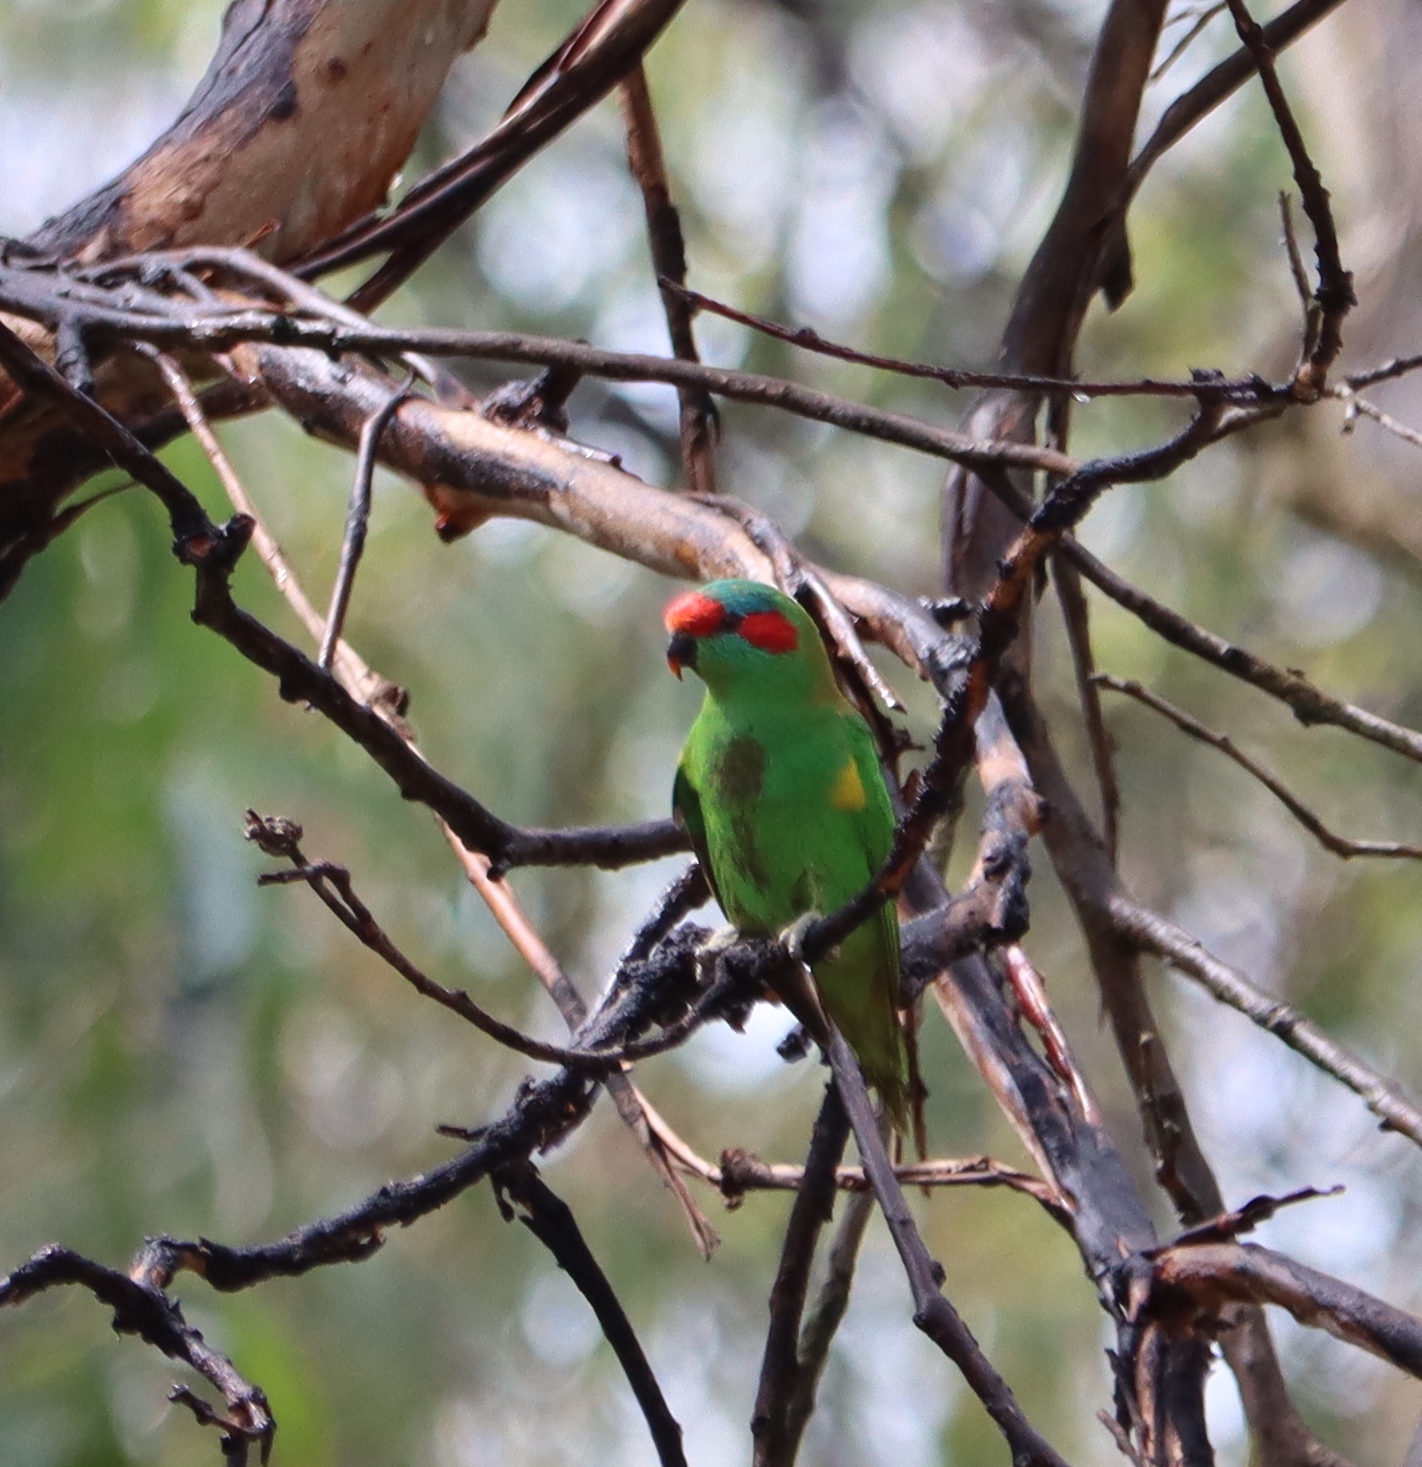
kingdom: Animalia
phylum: Chordata
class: Aves
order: Psittaciformes
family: Psittacidae
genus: Glossopsitta
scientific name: Glossopsitta concinna
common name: Musk lorikeet
